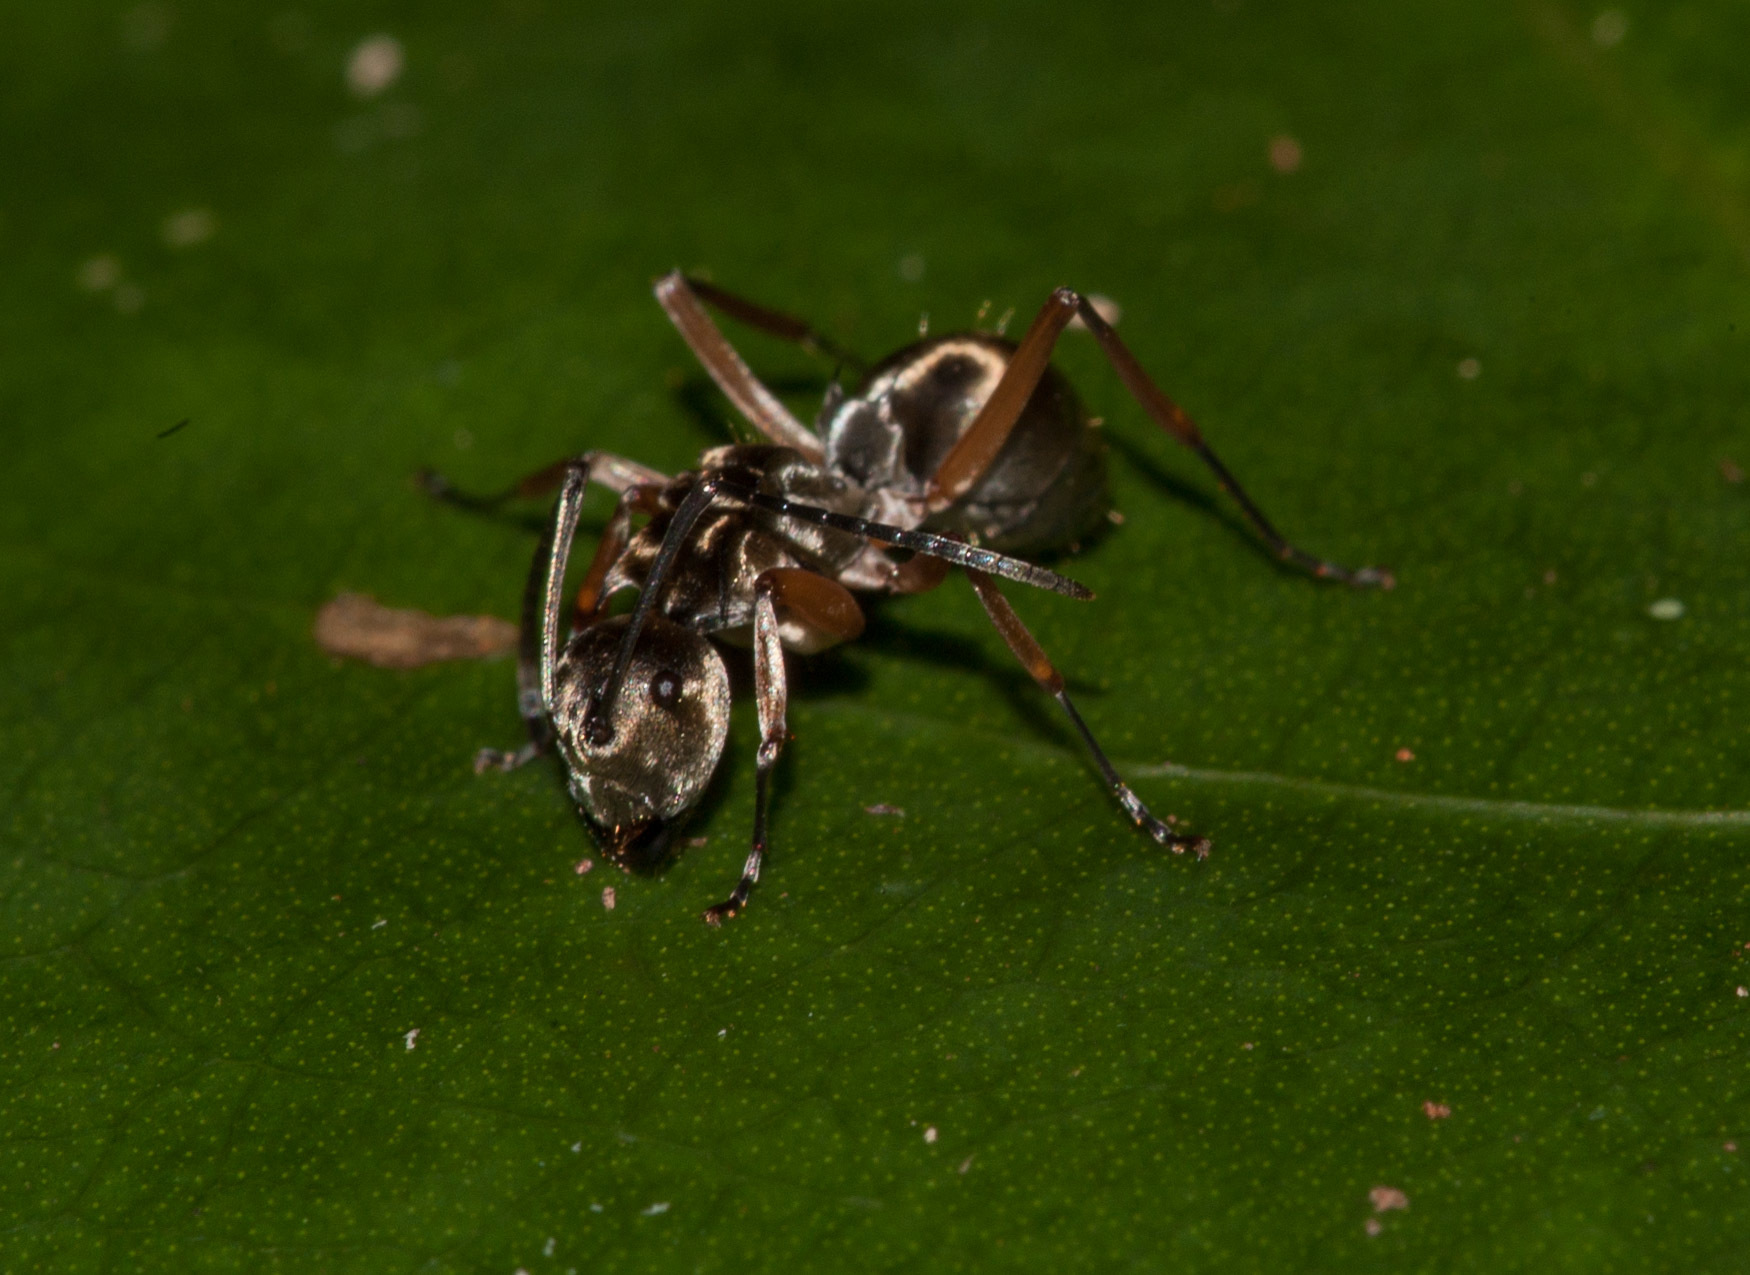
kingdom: Animalia
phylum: Arthropoda
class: Insecta
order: Hymenoptera
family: Formicidae
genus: Polyrhachis
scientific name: Polyrhachis andromache
